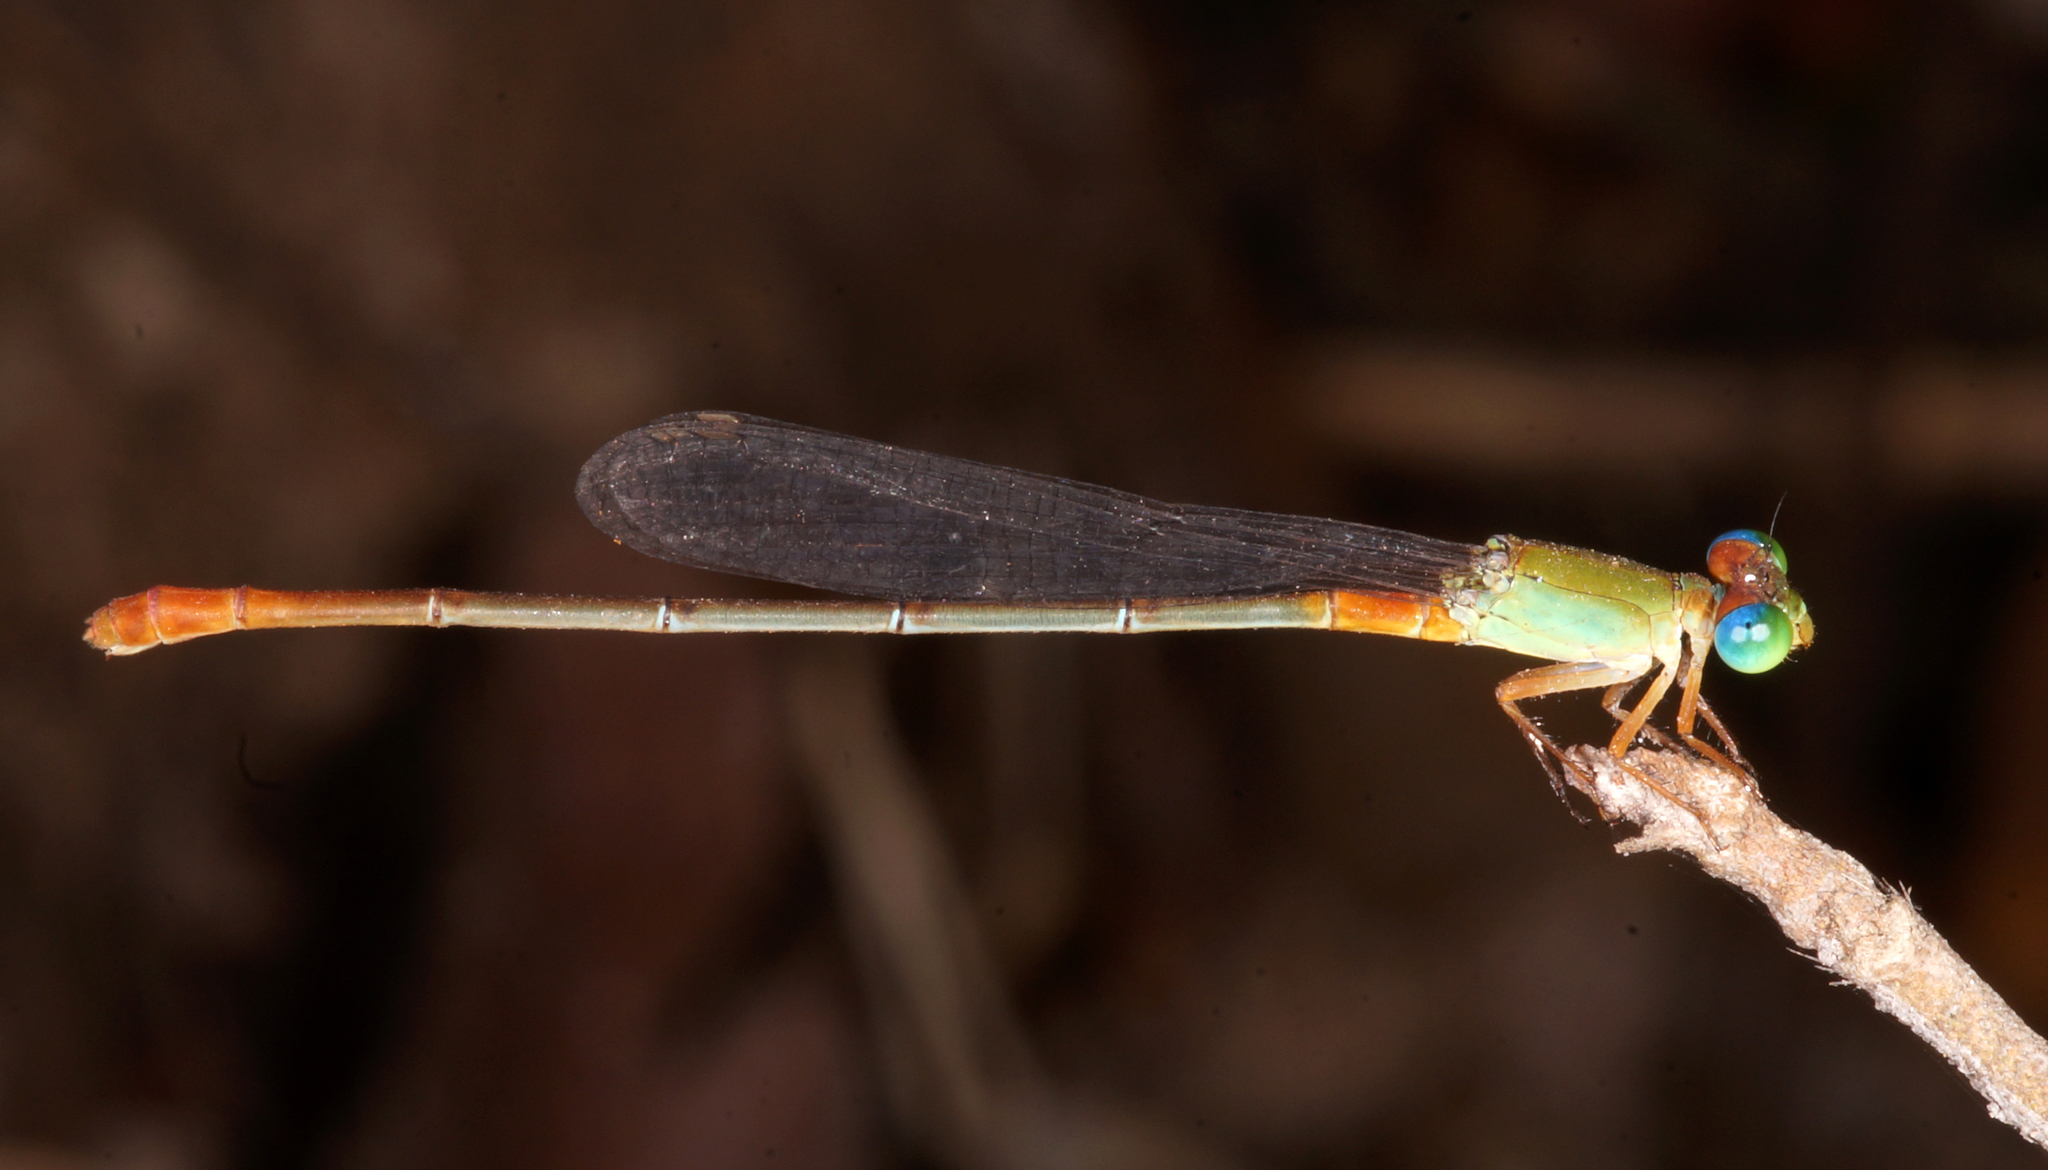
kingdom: Animalia
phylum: Arthropoda
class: Insecta
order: Odonata
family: Coenagrionidae
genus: Ceriagrion
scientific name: Ceriagrion cerinorubellum
